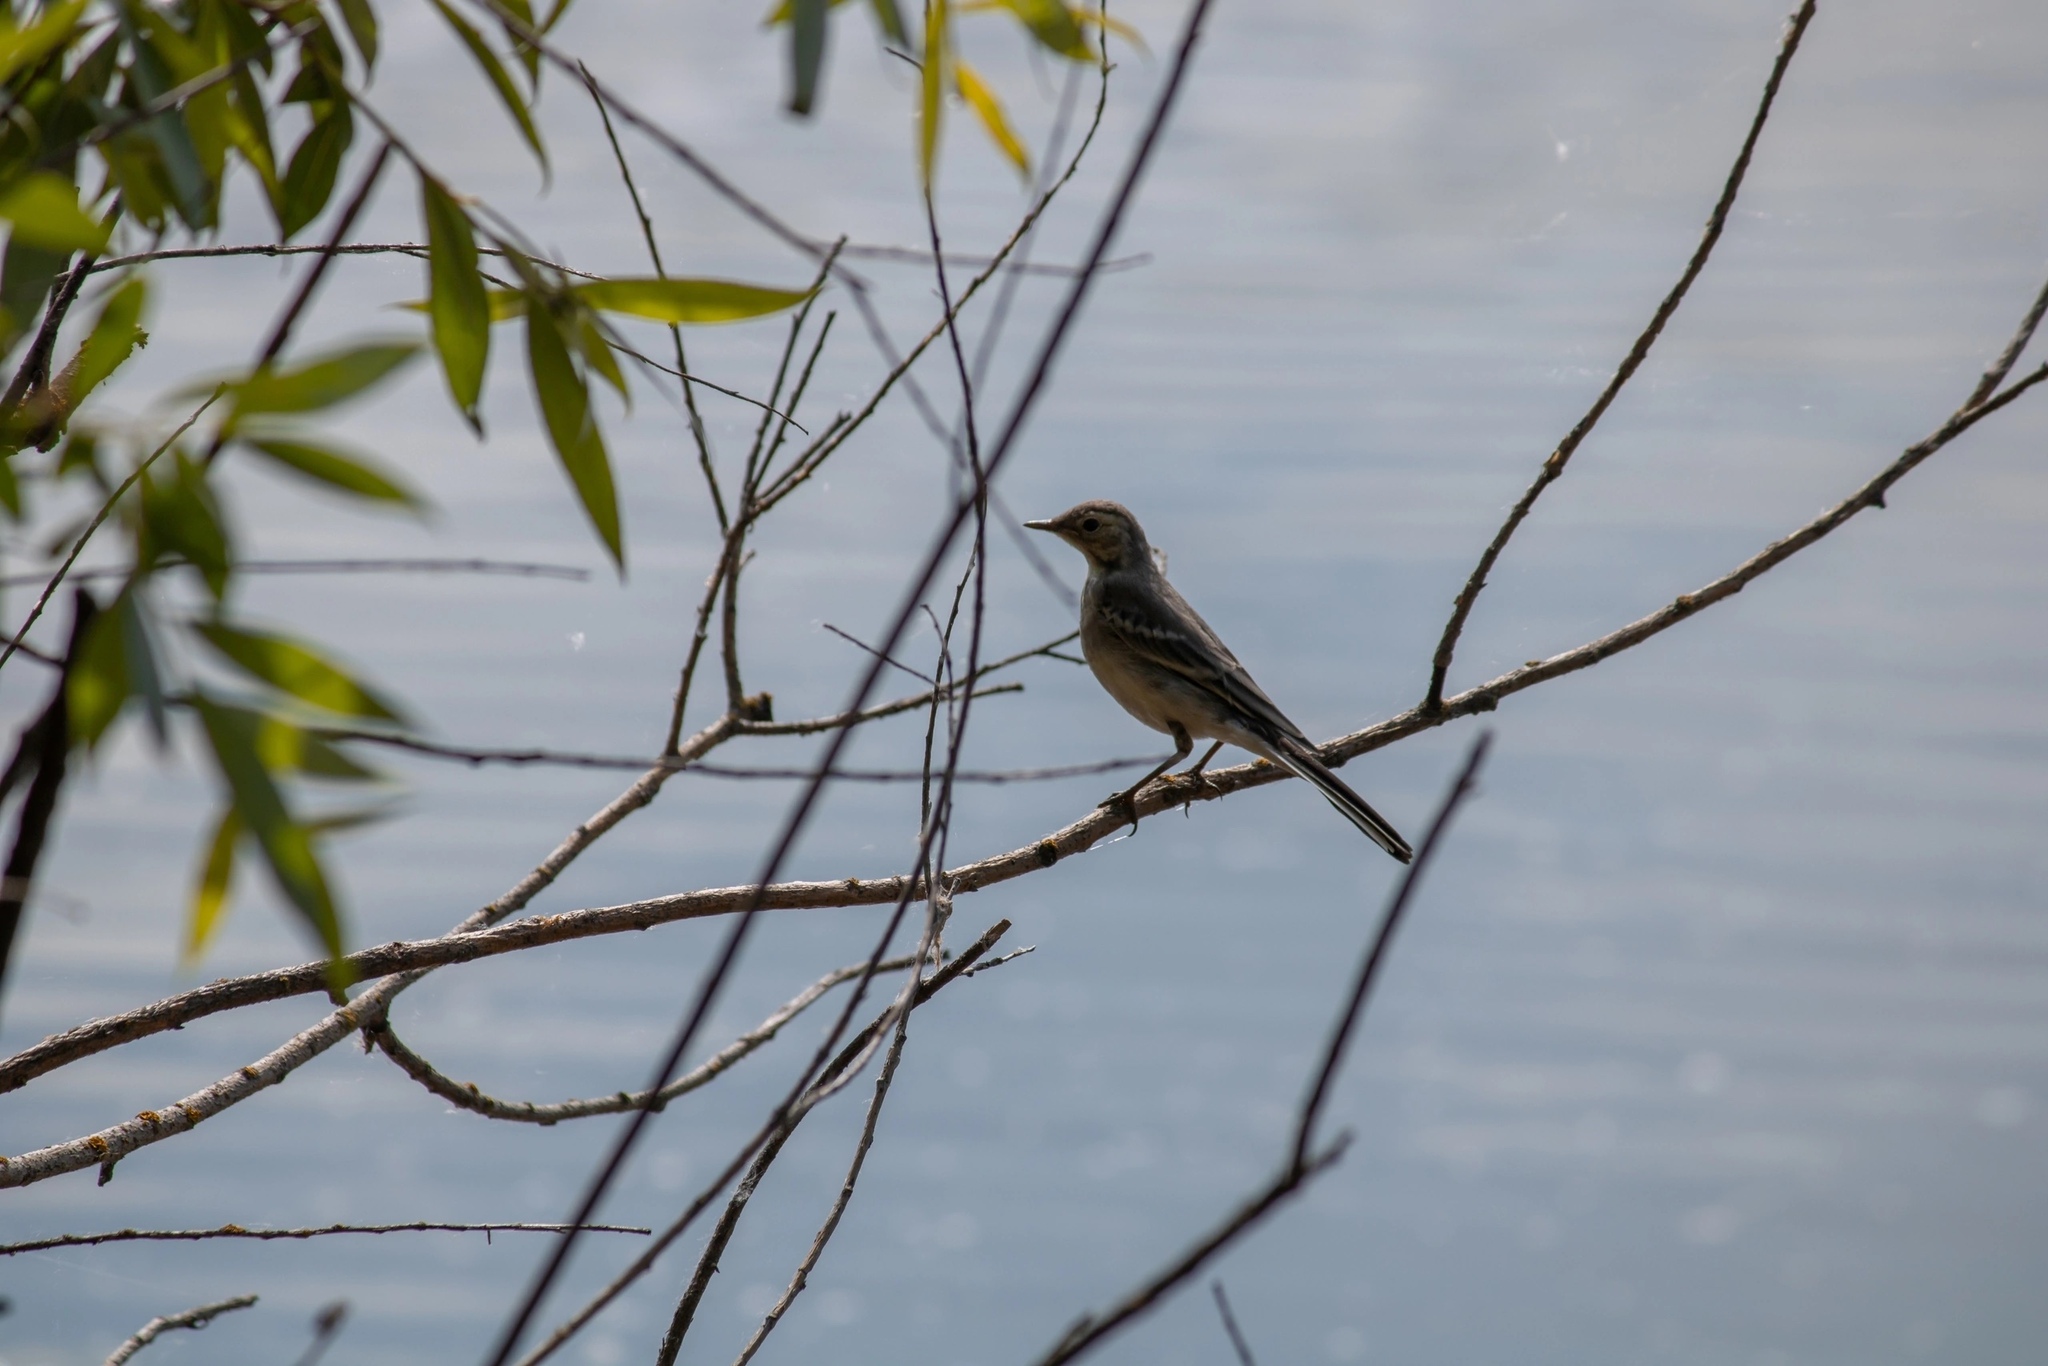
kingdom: Animalia
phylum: Chordata
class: Aves
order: Passeriformes
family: Motacillidae
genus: Motacilla
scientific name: Motacilla flava
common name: Western yellow wagtail
